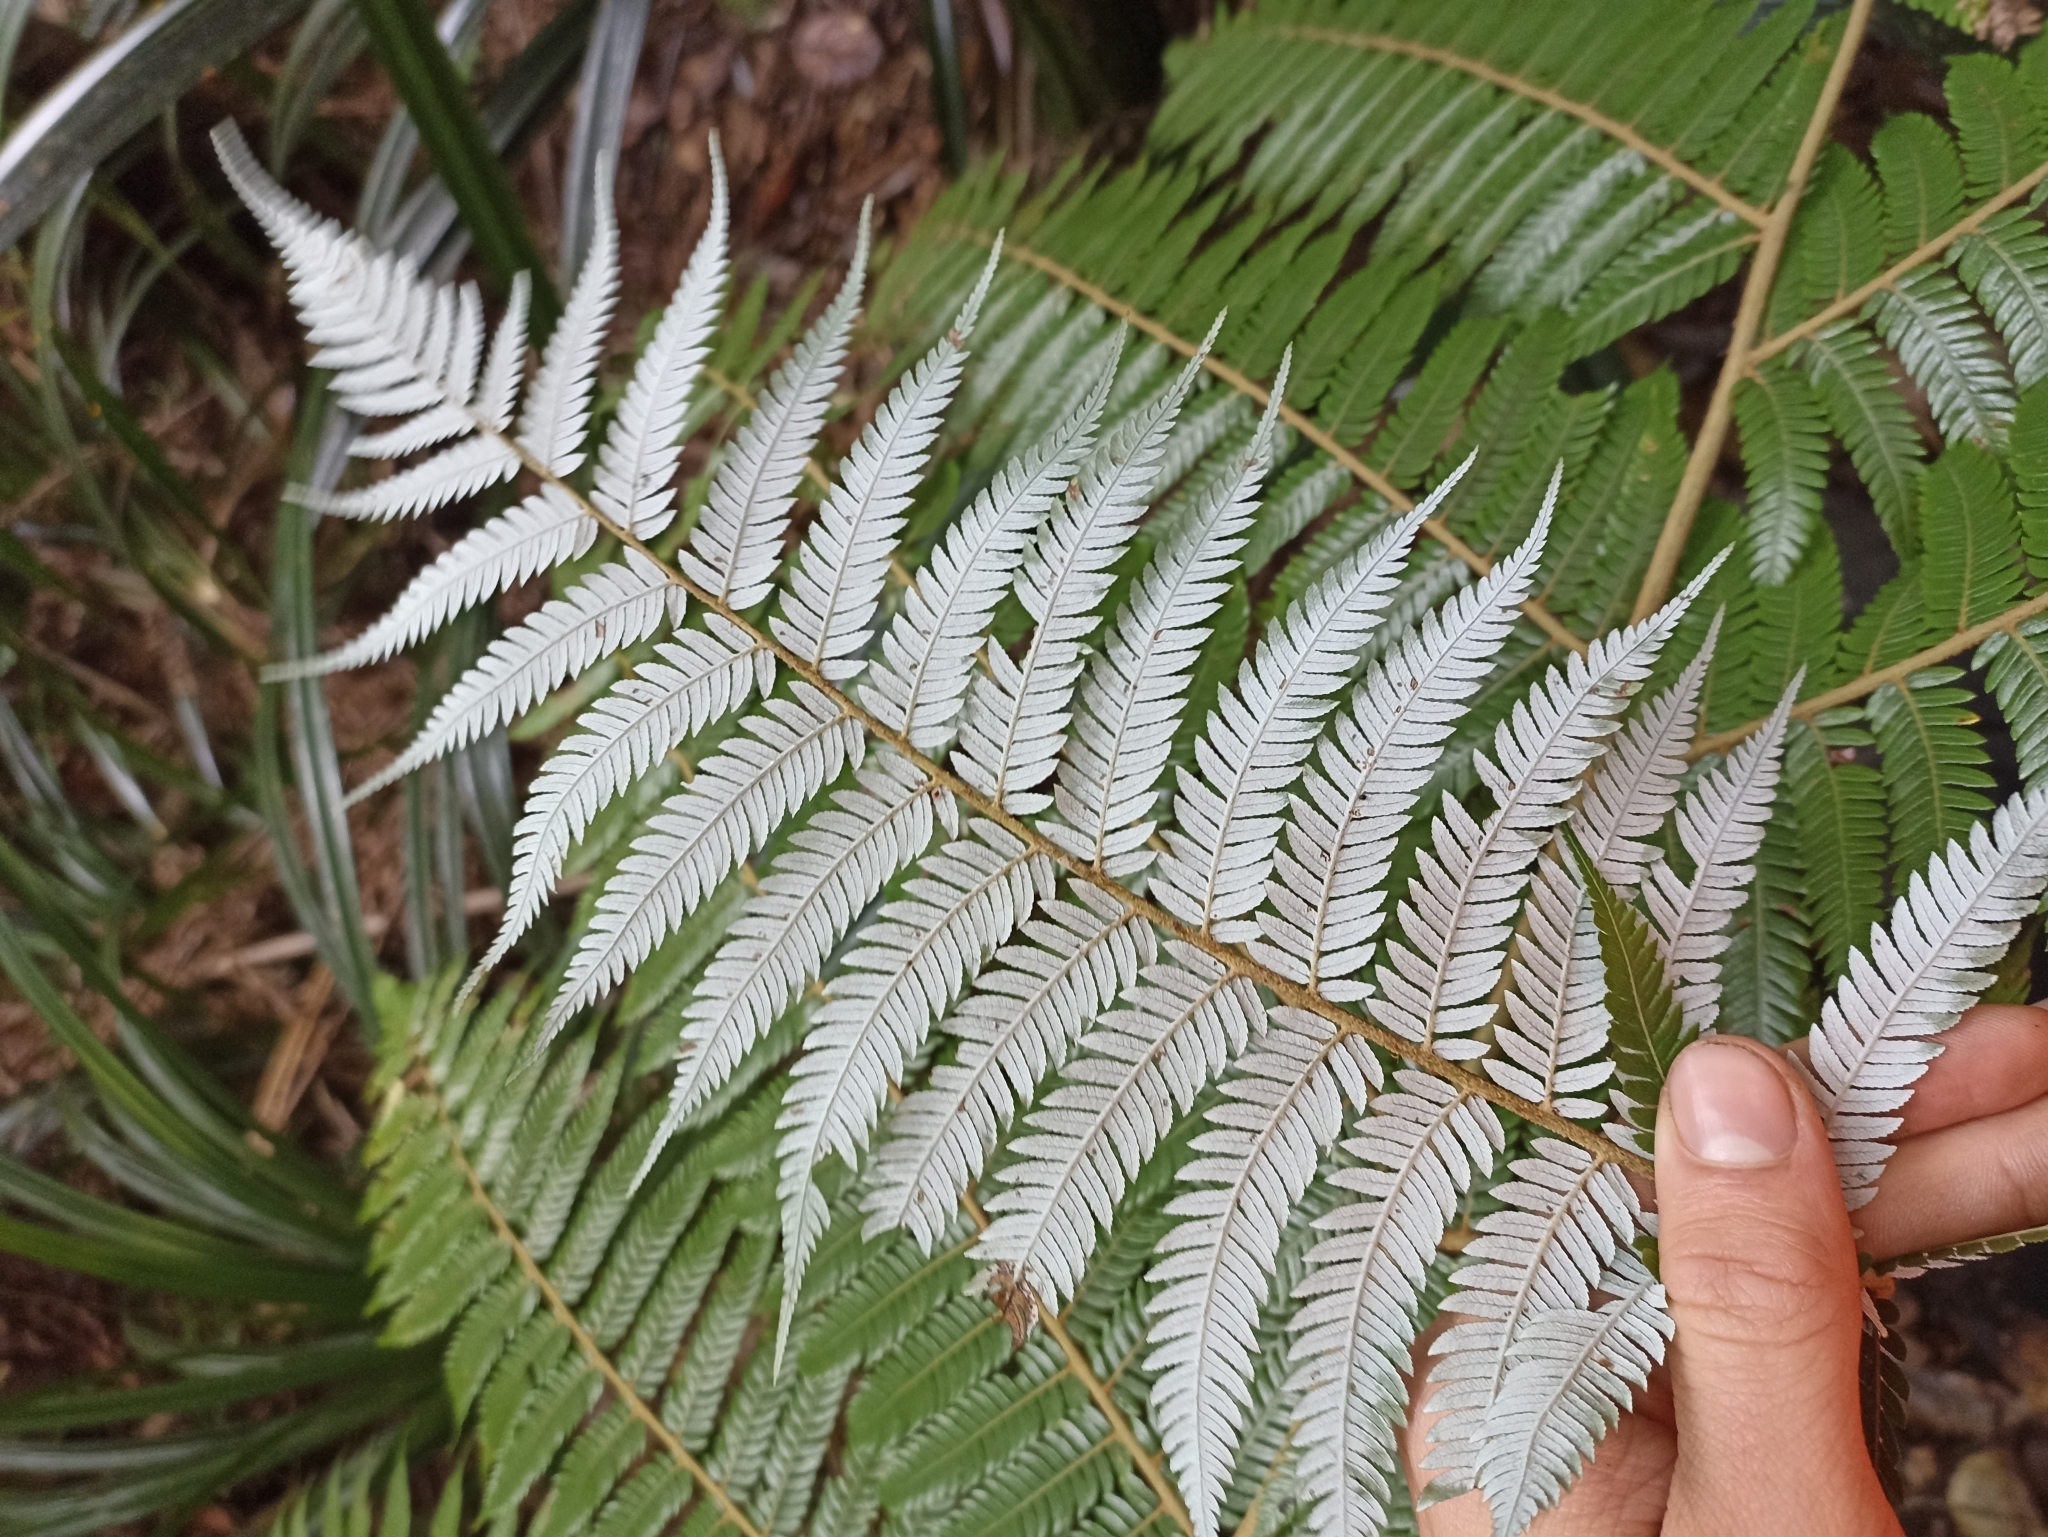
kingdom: Plantae
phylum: Tracheophyta
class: Polypodiopsida
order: Cyatheales
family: Cyatheaceae
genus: Alsophila
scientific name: Alsophila dealbata
